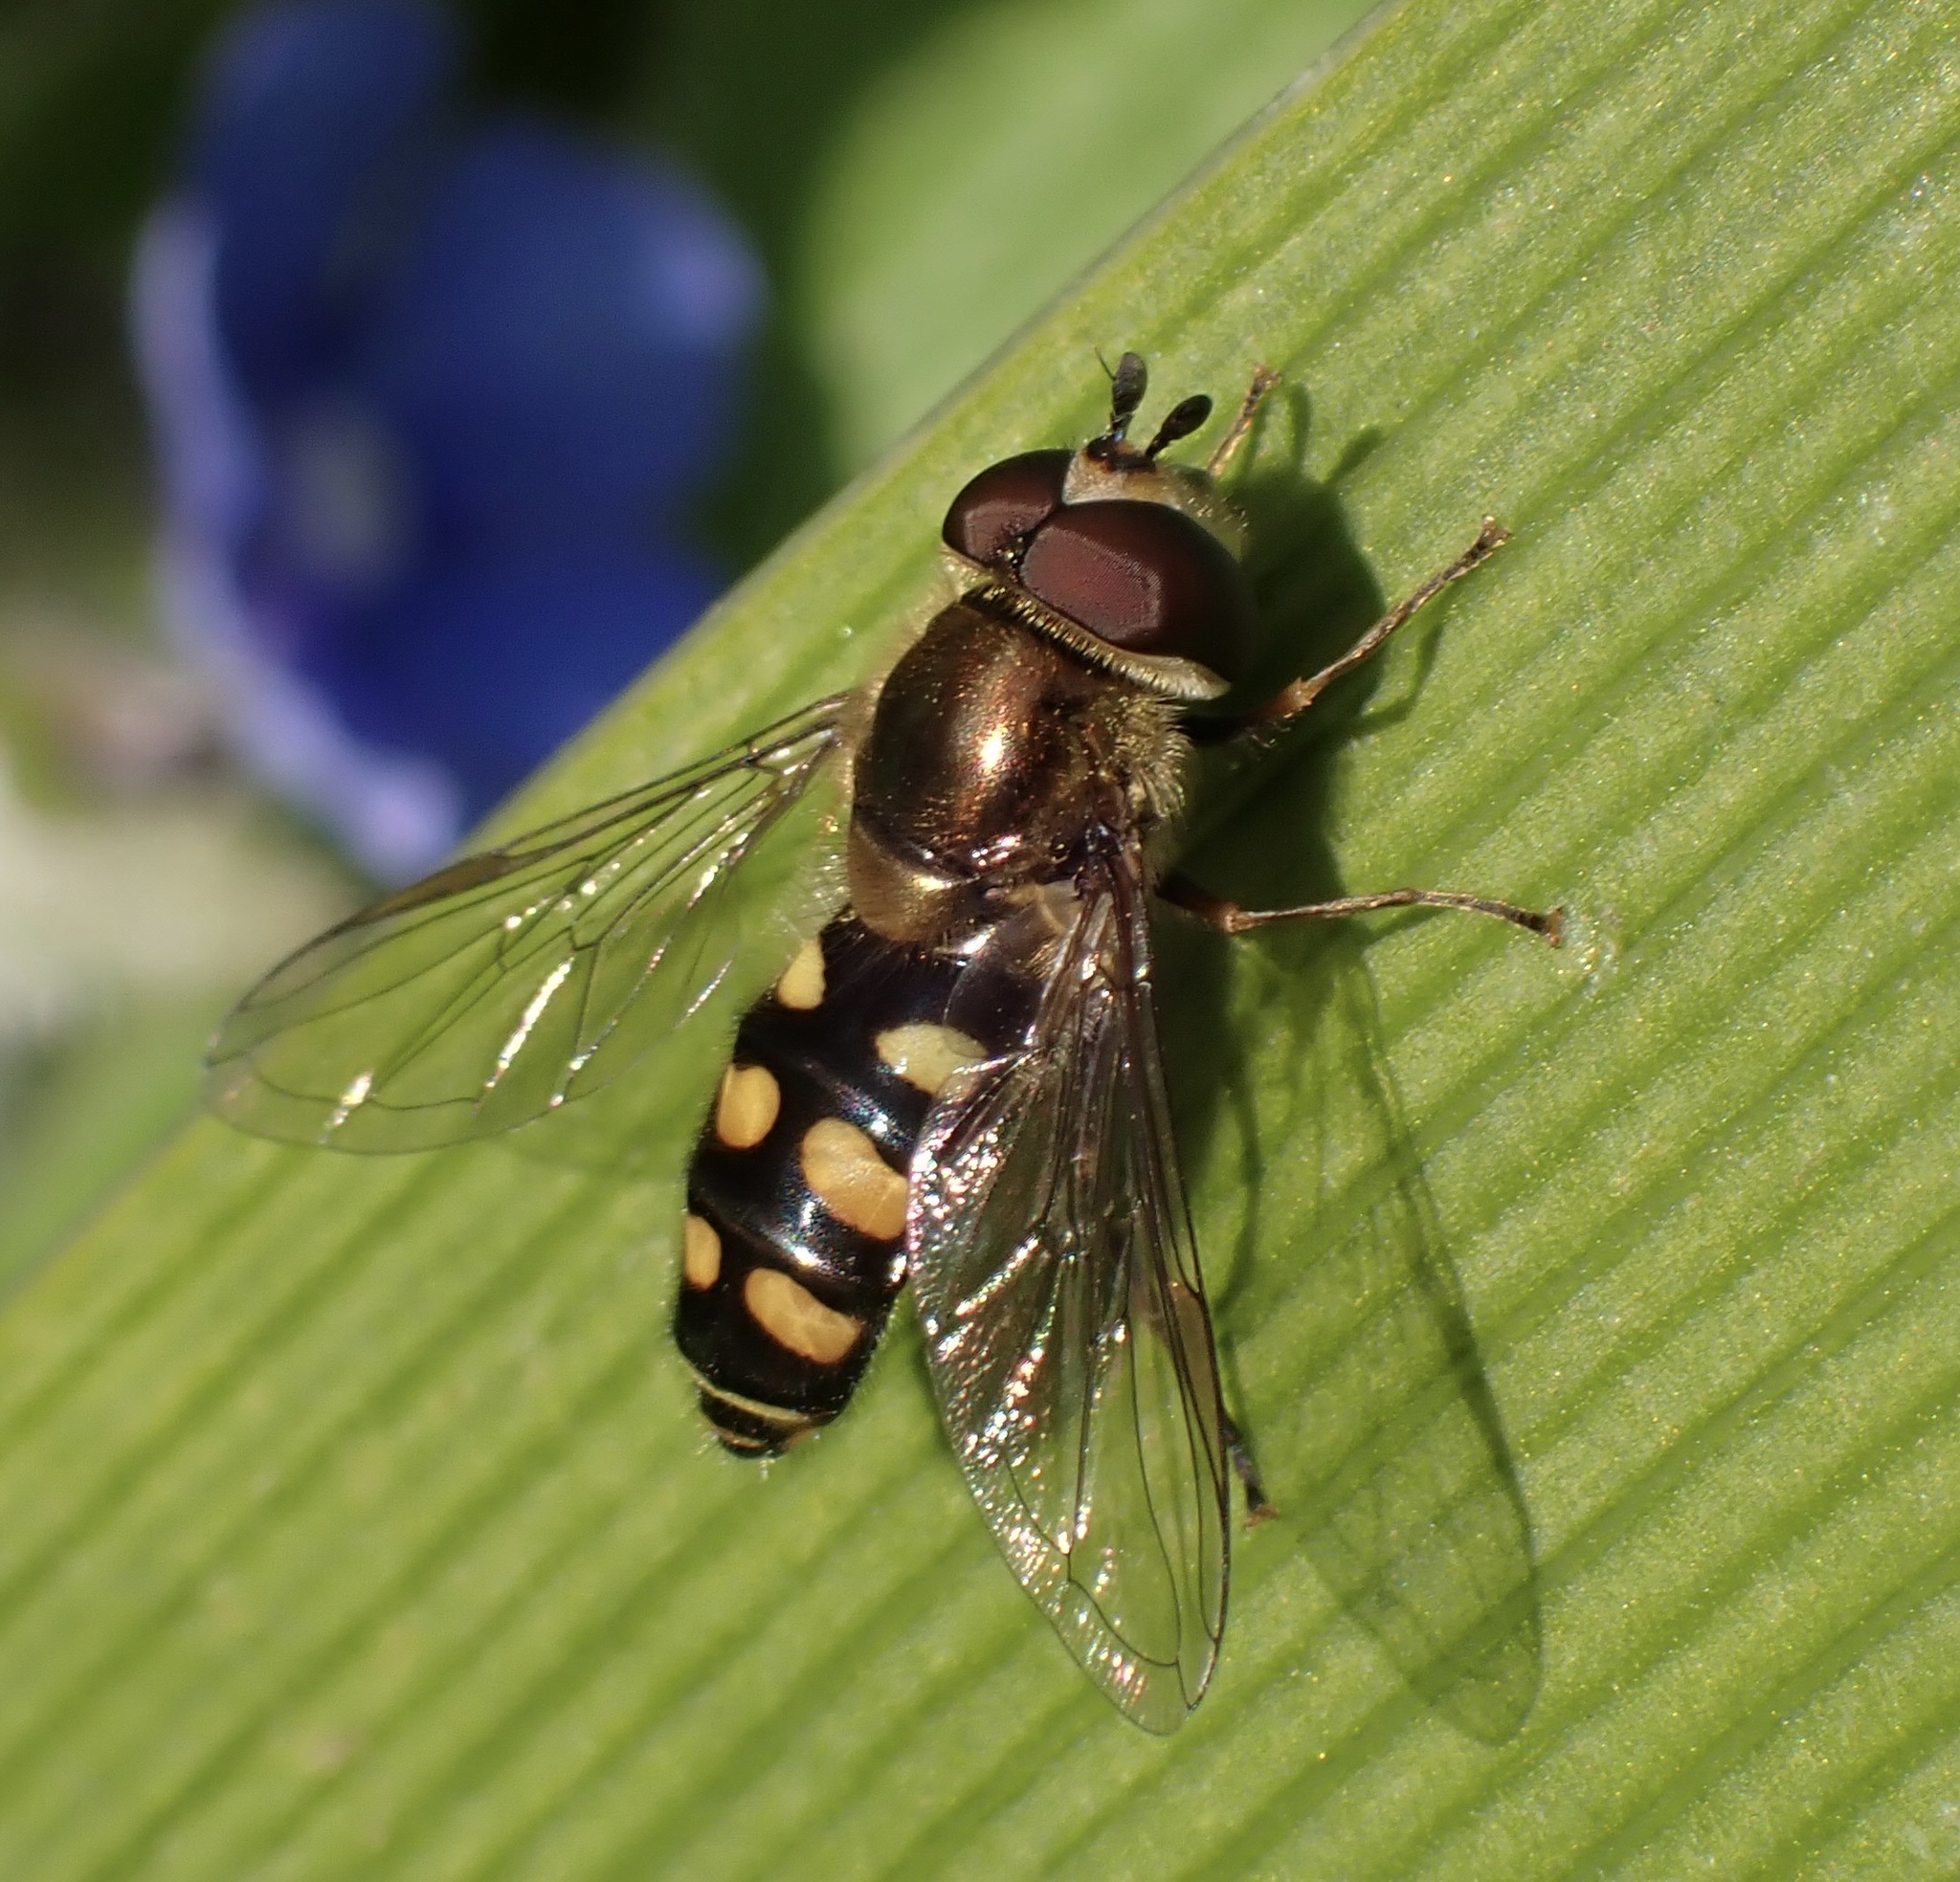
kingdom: Animalia
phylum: Arthropoda
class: Insecta
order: Diptera
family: Syrphidae
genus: Eupeodes
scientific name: Eupeodes
